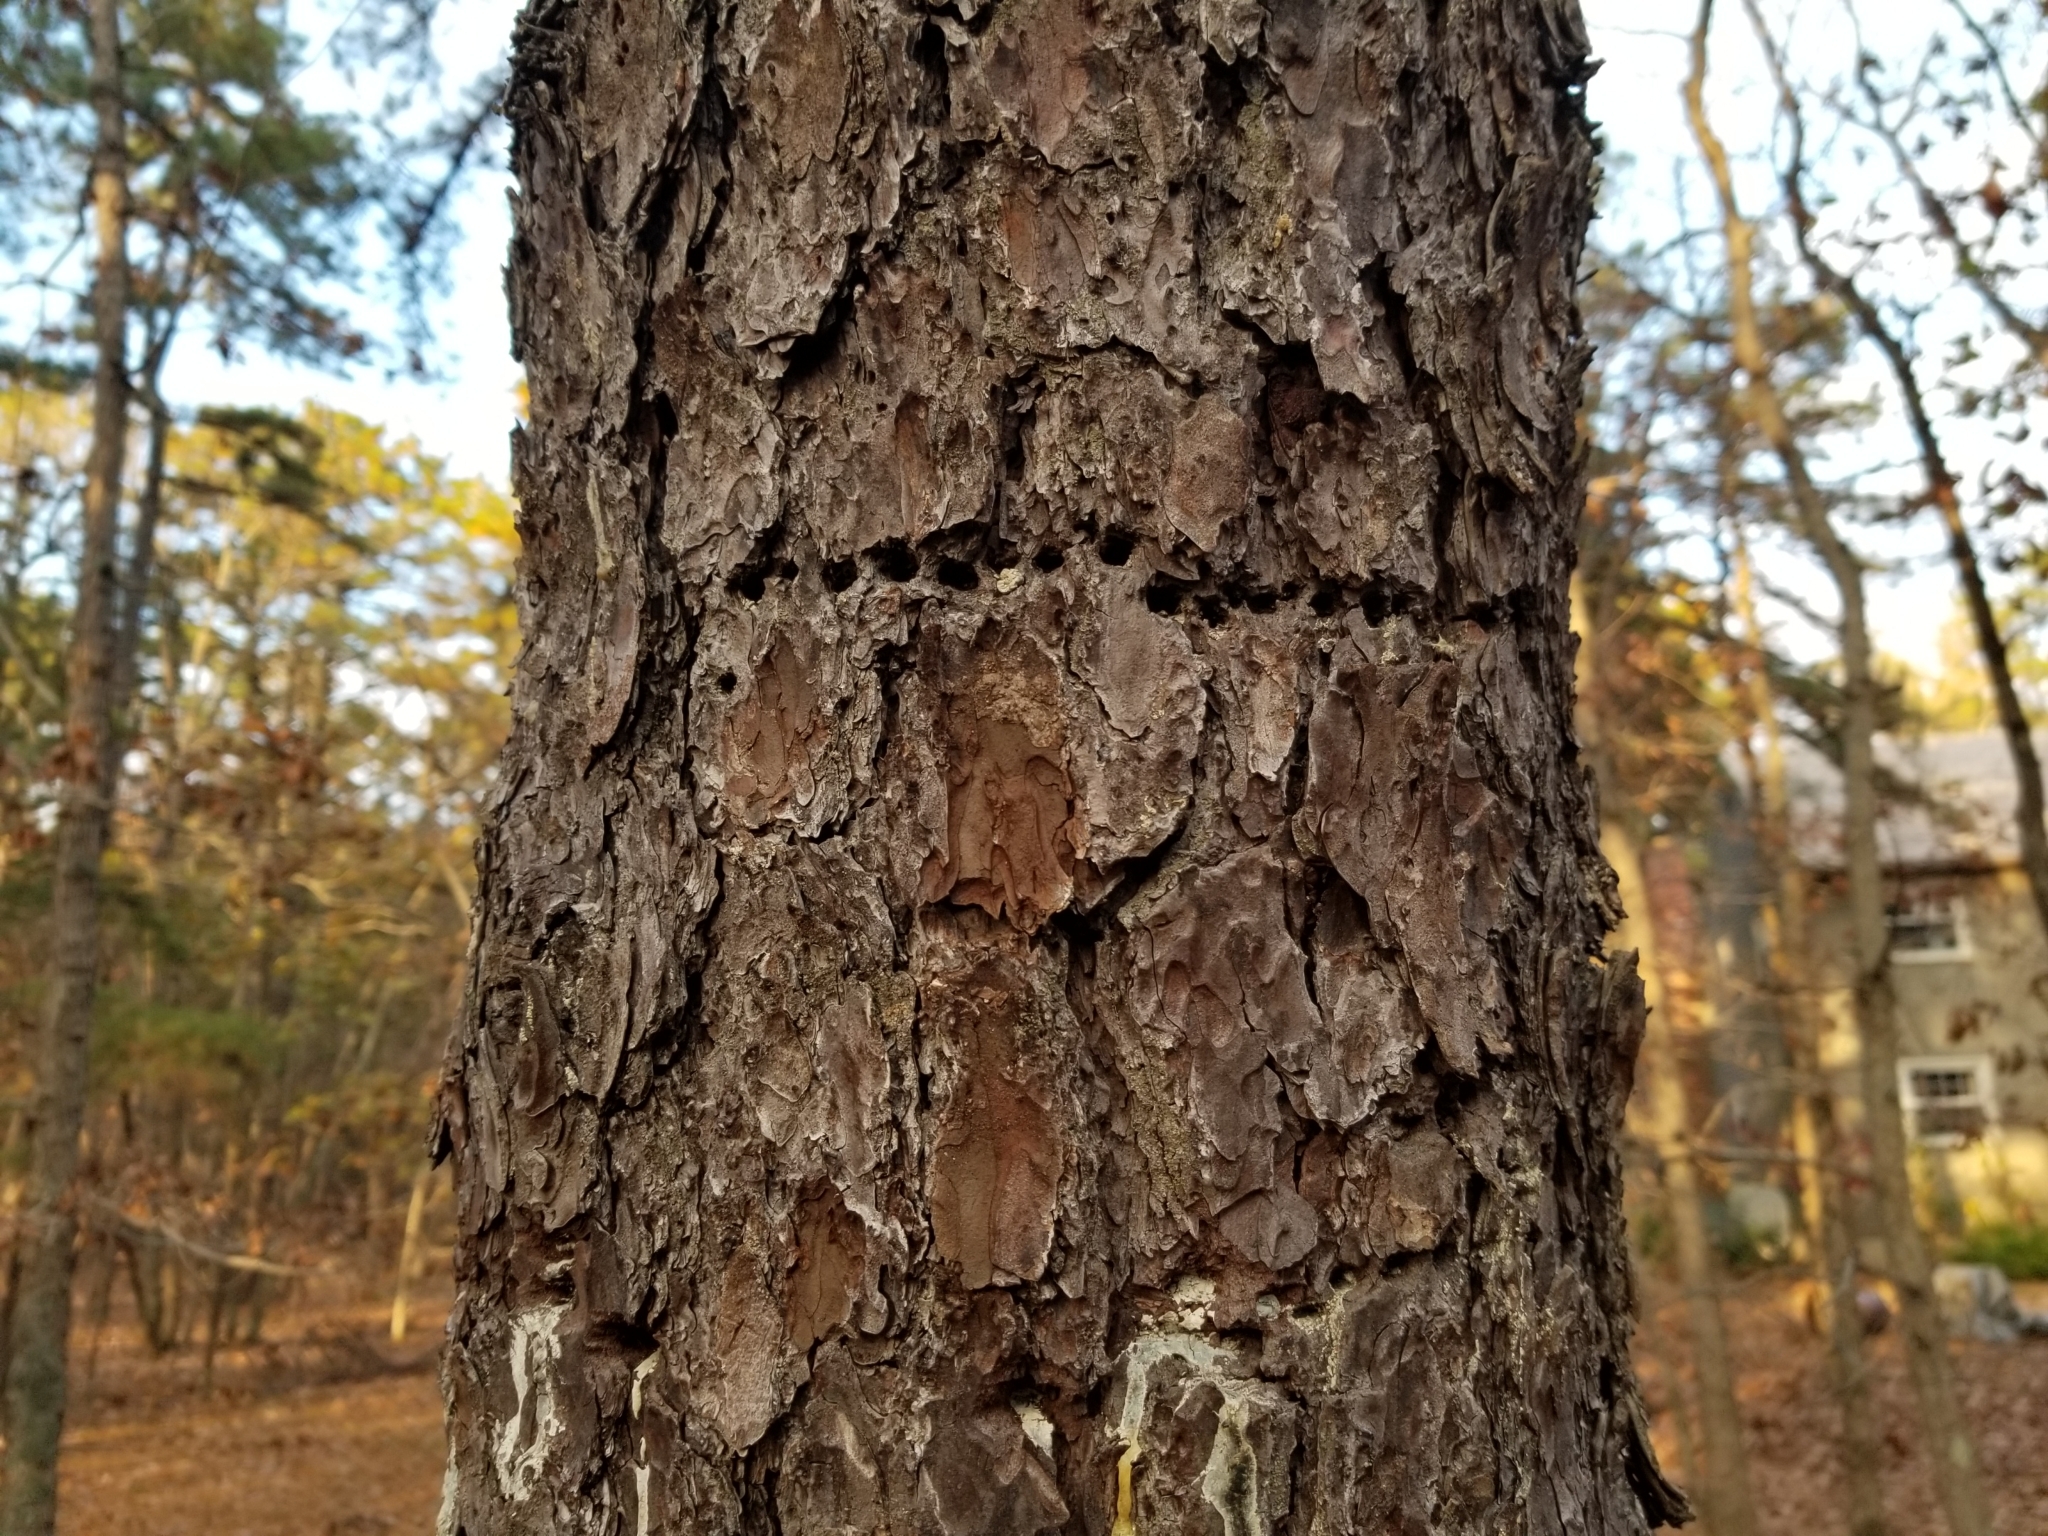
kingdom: Animalia
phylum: Chordata
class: Aves
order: Piciformes
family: Picidae
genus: Sphyrapicus
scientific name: Sphyrapicus varius
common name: Yellow-bellied sapsucker
